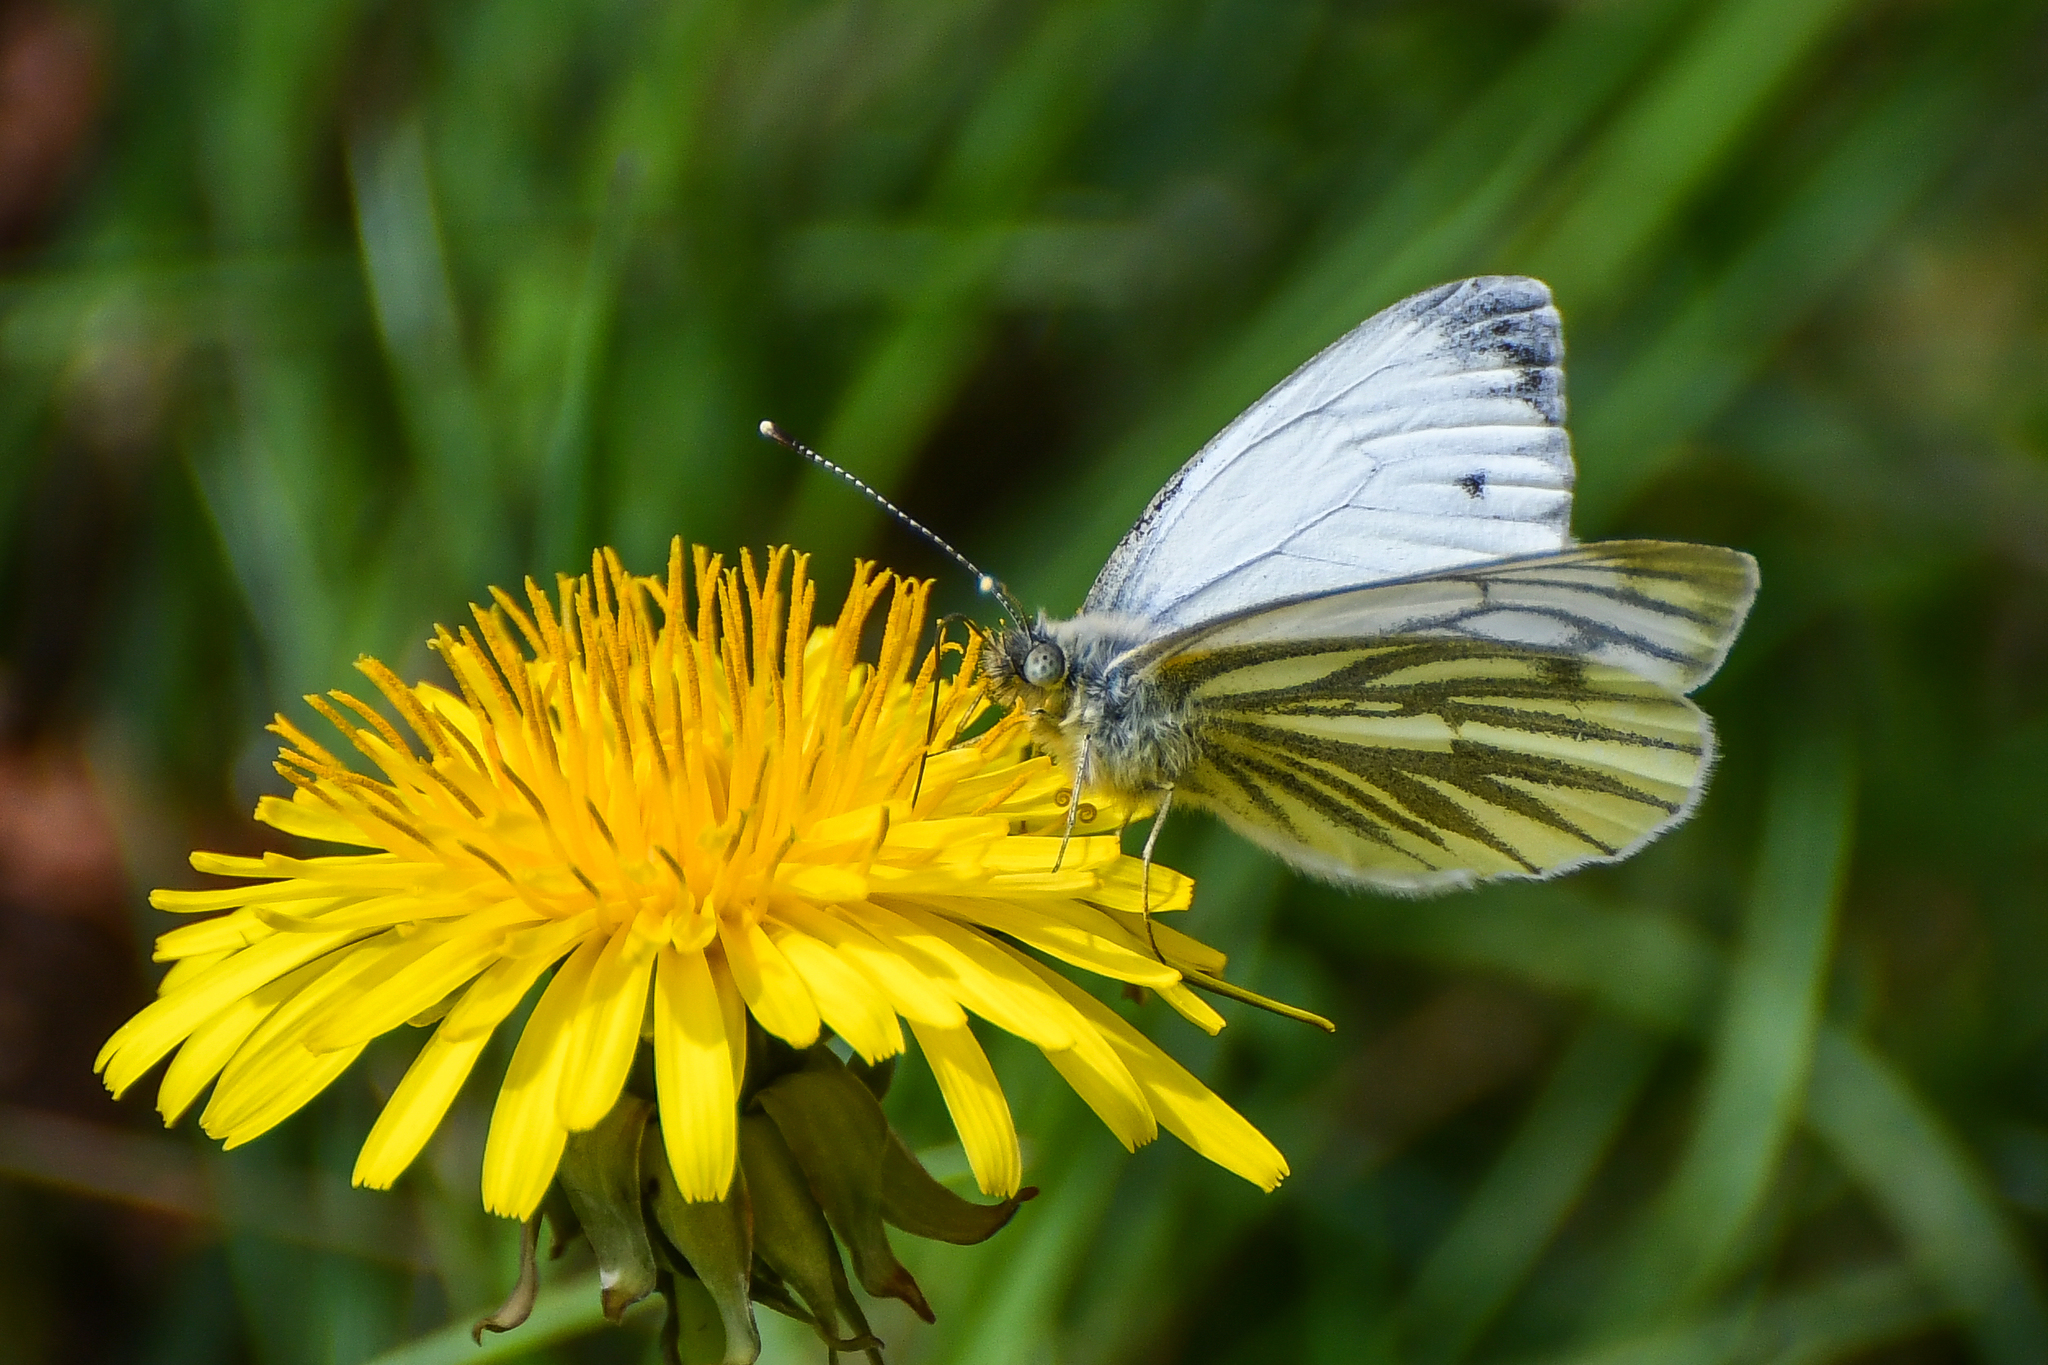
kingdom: Animalia
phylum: Arthropoda
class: Insecta
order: Lepidoptera
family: Pieridae
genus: Pieris
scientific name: Pieris napi
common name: Green-veined white
